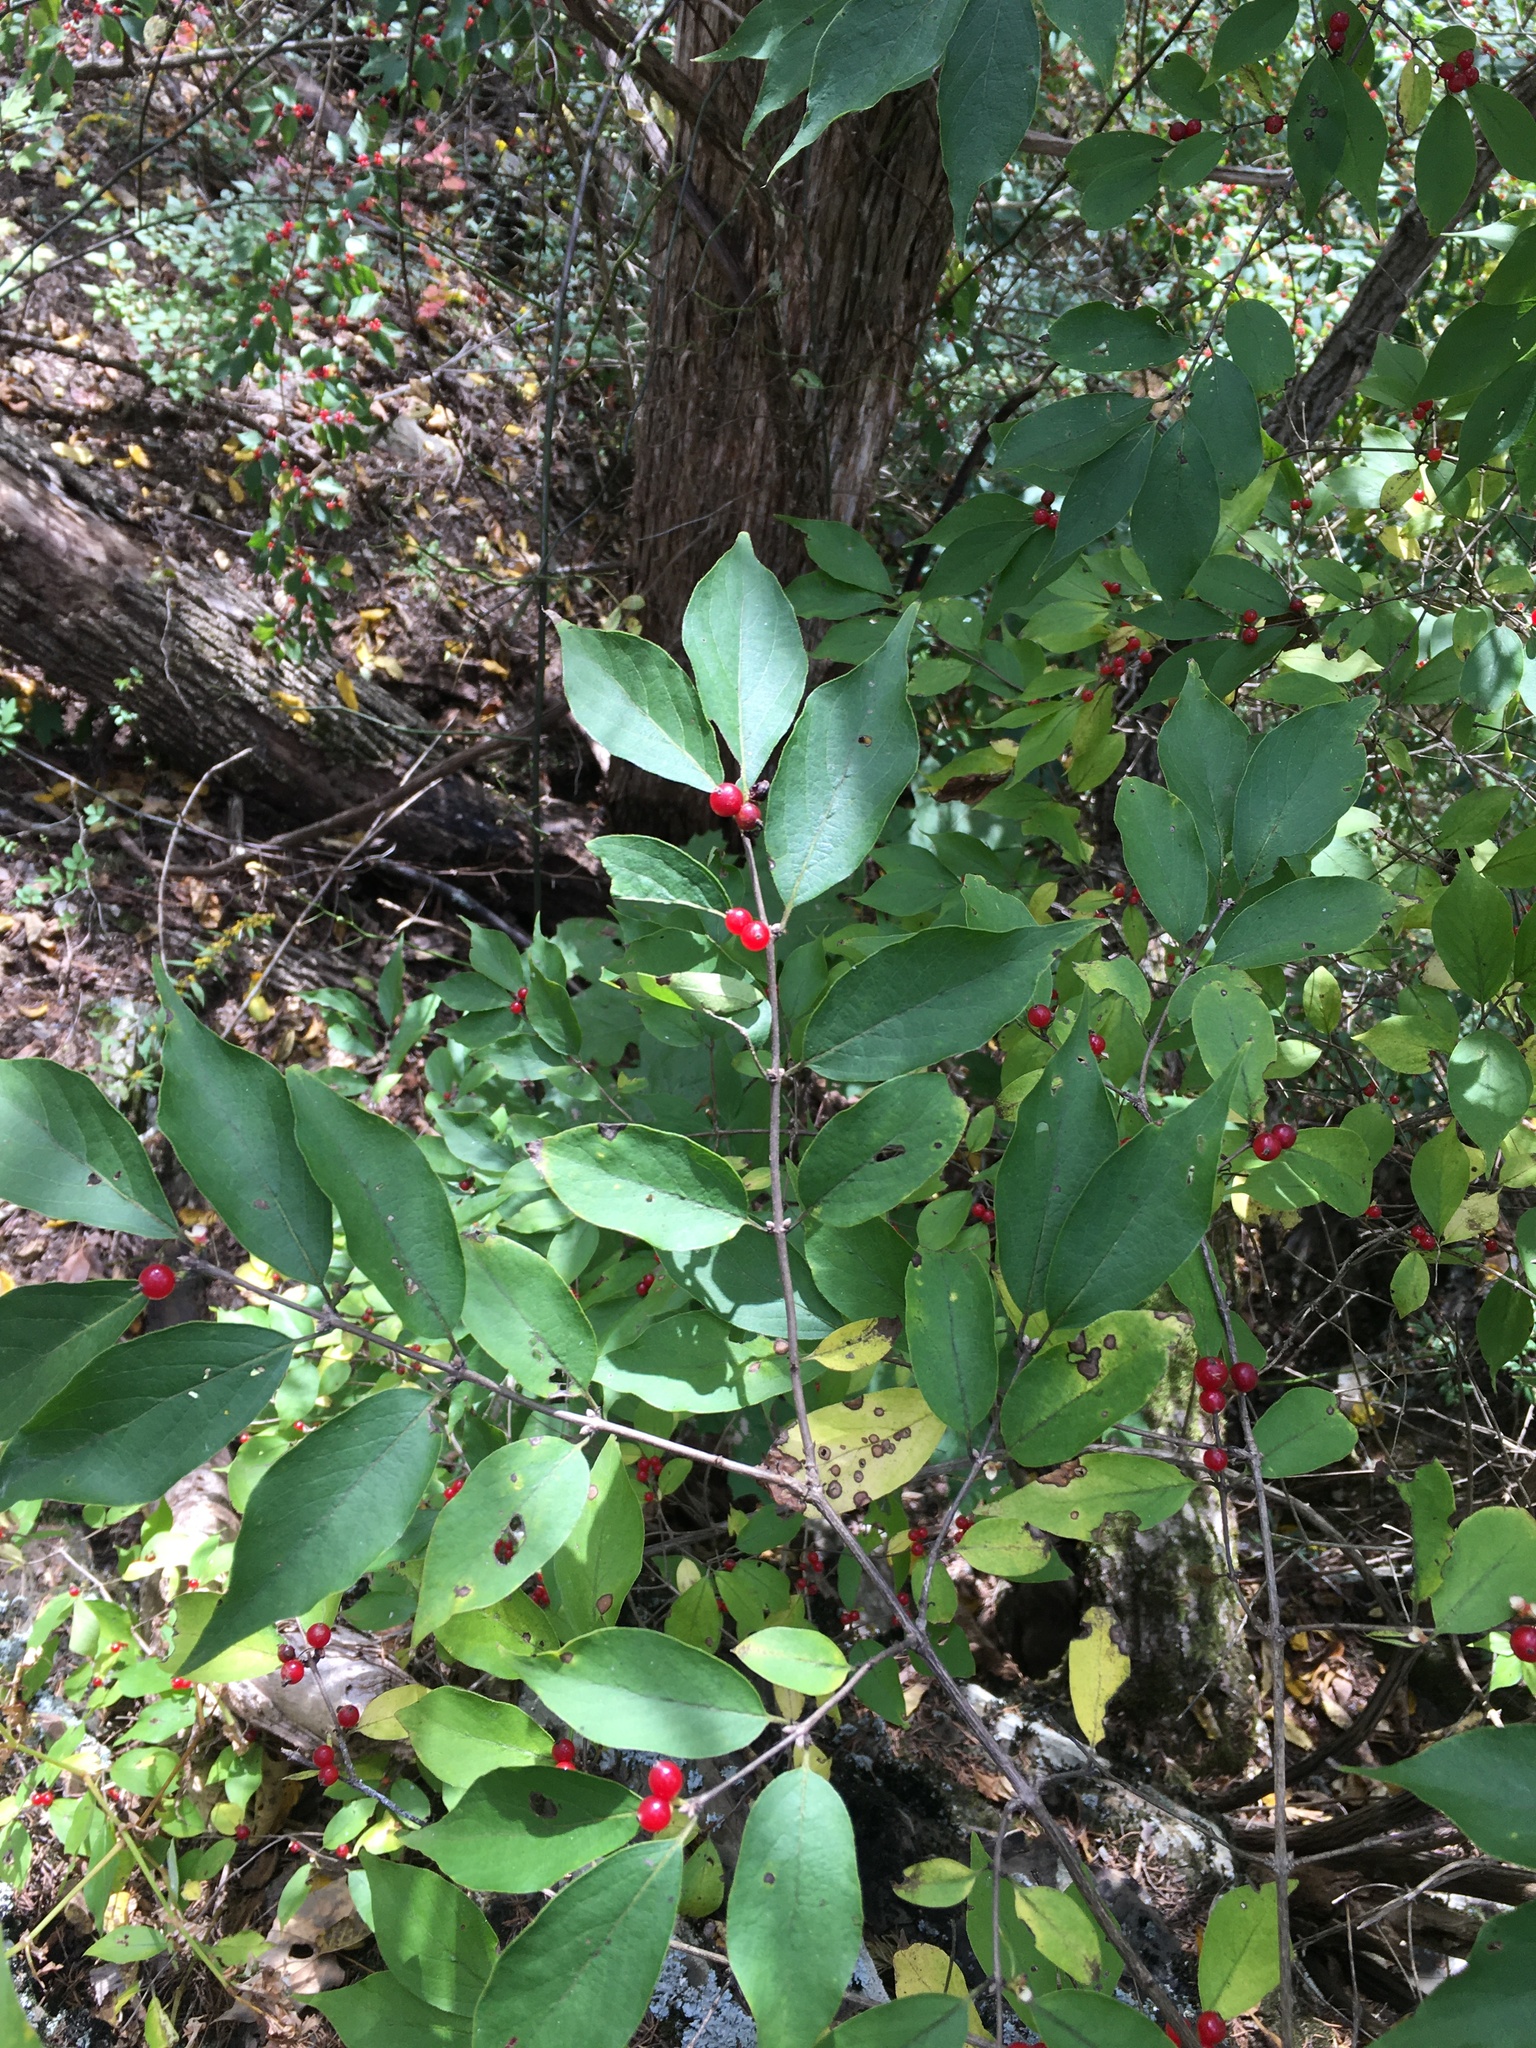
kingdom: Plantae
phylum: Tracheophyta
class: Magnoliopsida
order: Dipsacales
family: Caprifoliaceae
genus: Lonicera
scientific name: Lonicera maackii
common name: Amur honeysuckle
